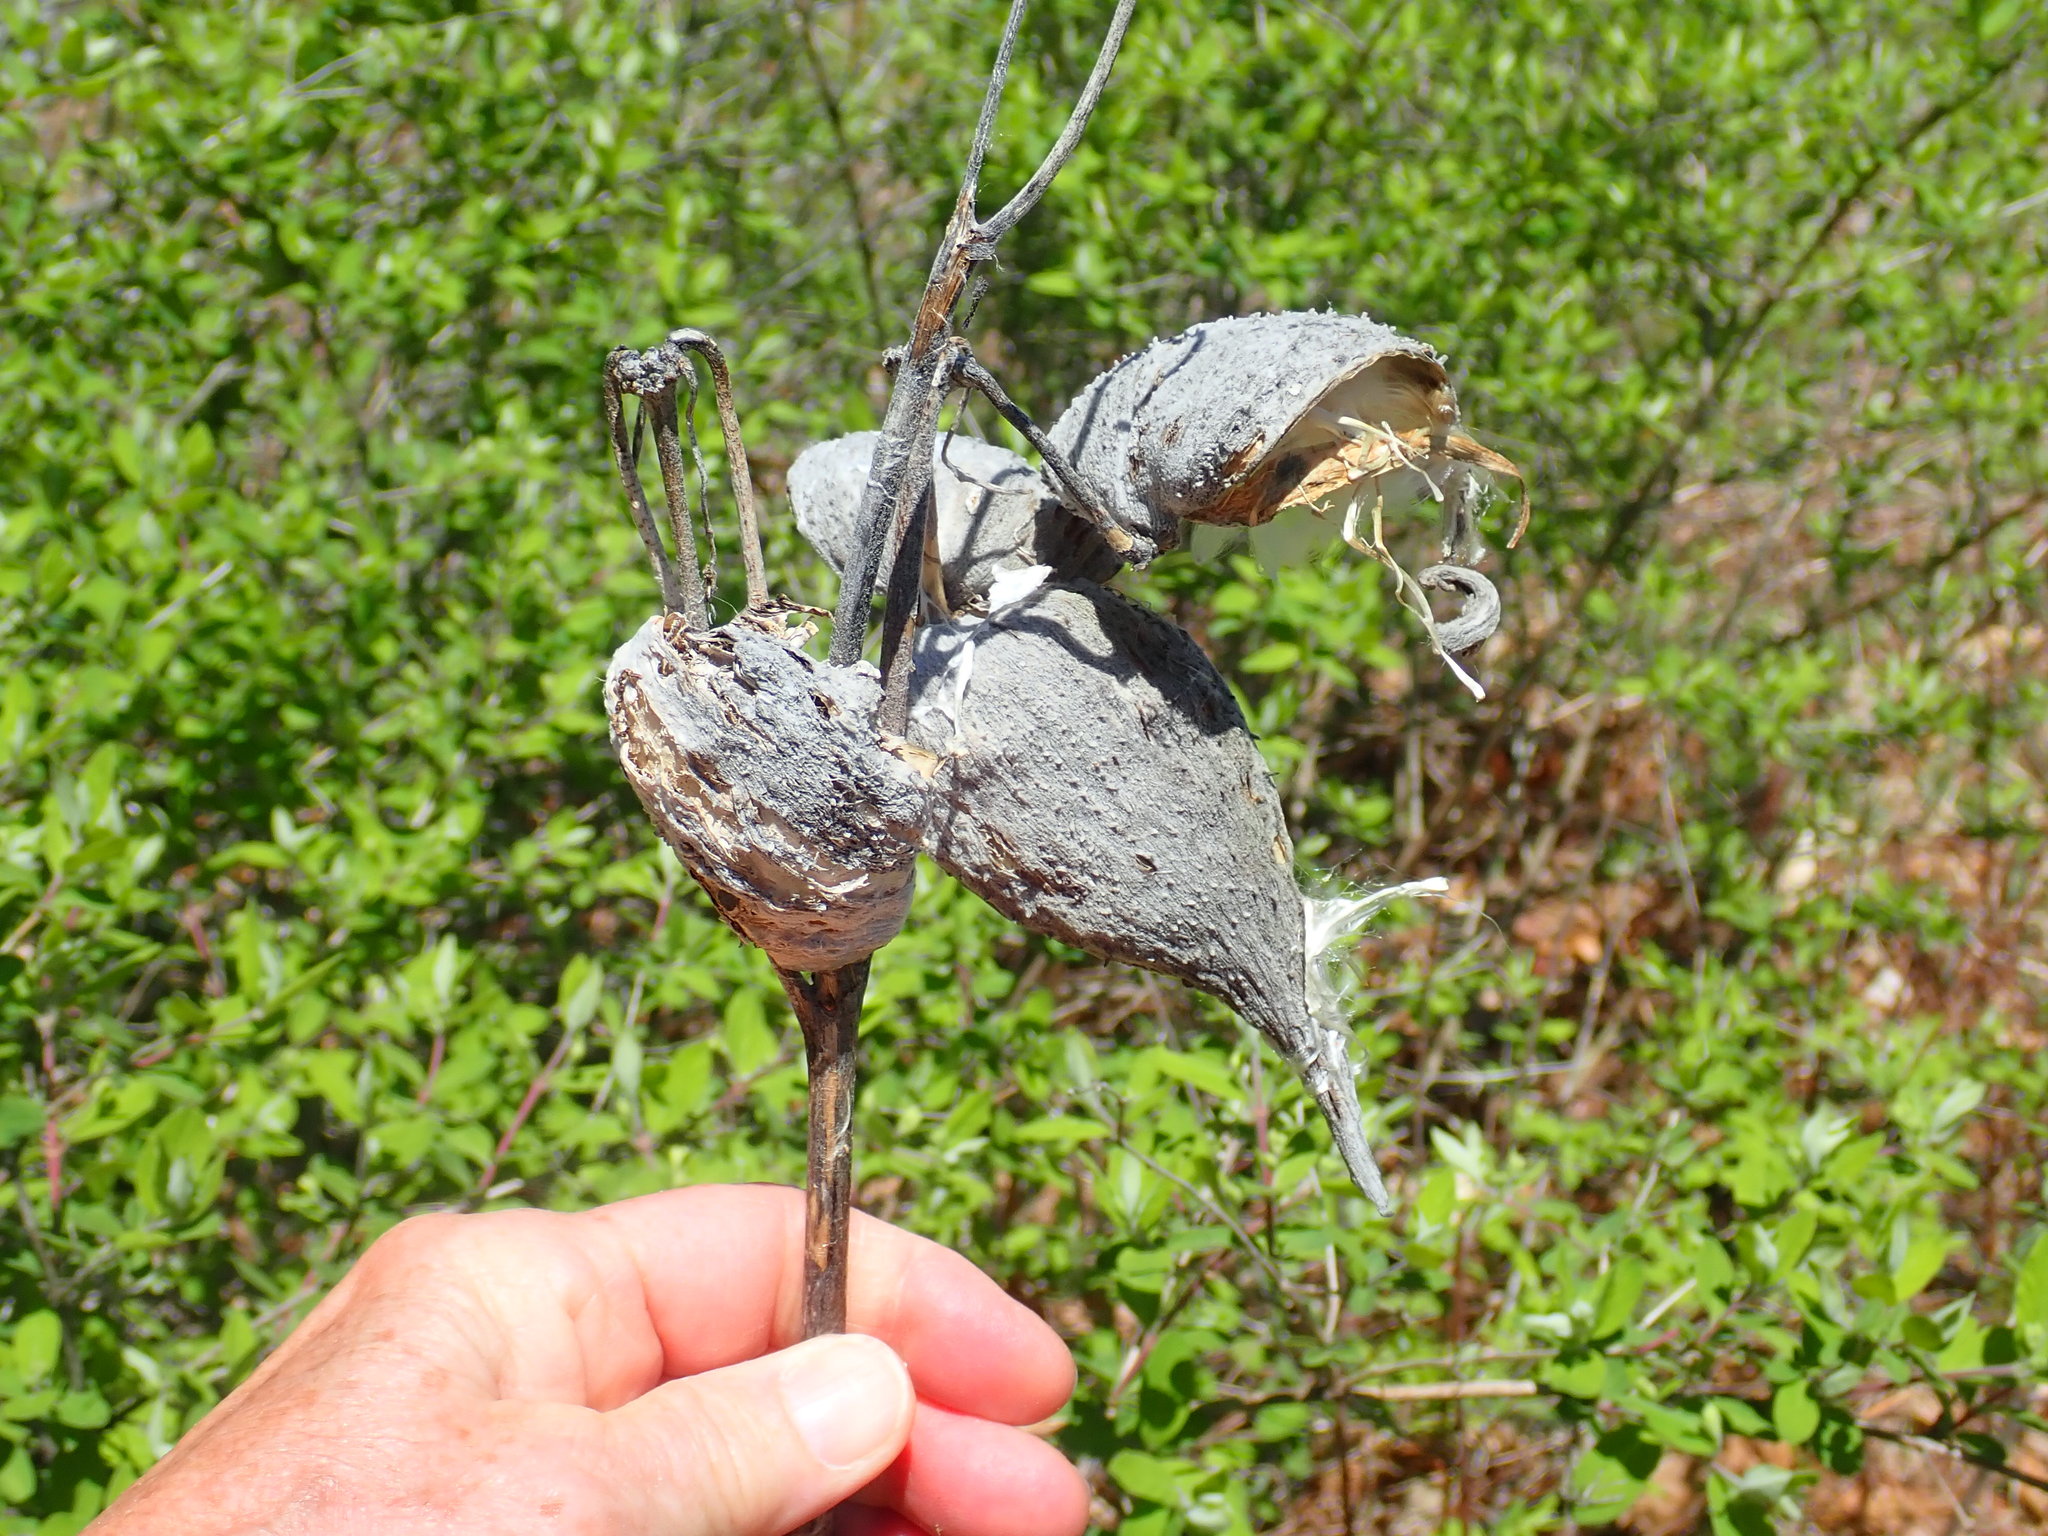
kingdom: Plantae
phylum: Tracheophyta
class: Magnoliopsida
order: Gentianales
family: Apocynaceae
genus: Asclepias
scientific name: Asclepias syriaca
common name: Common milkweed
